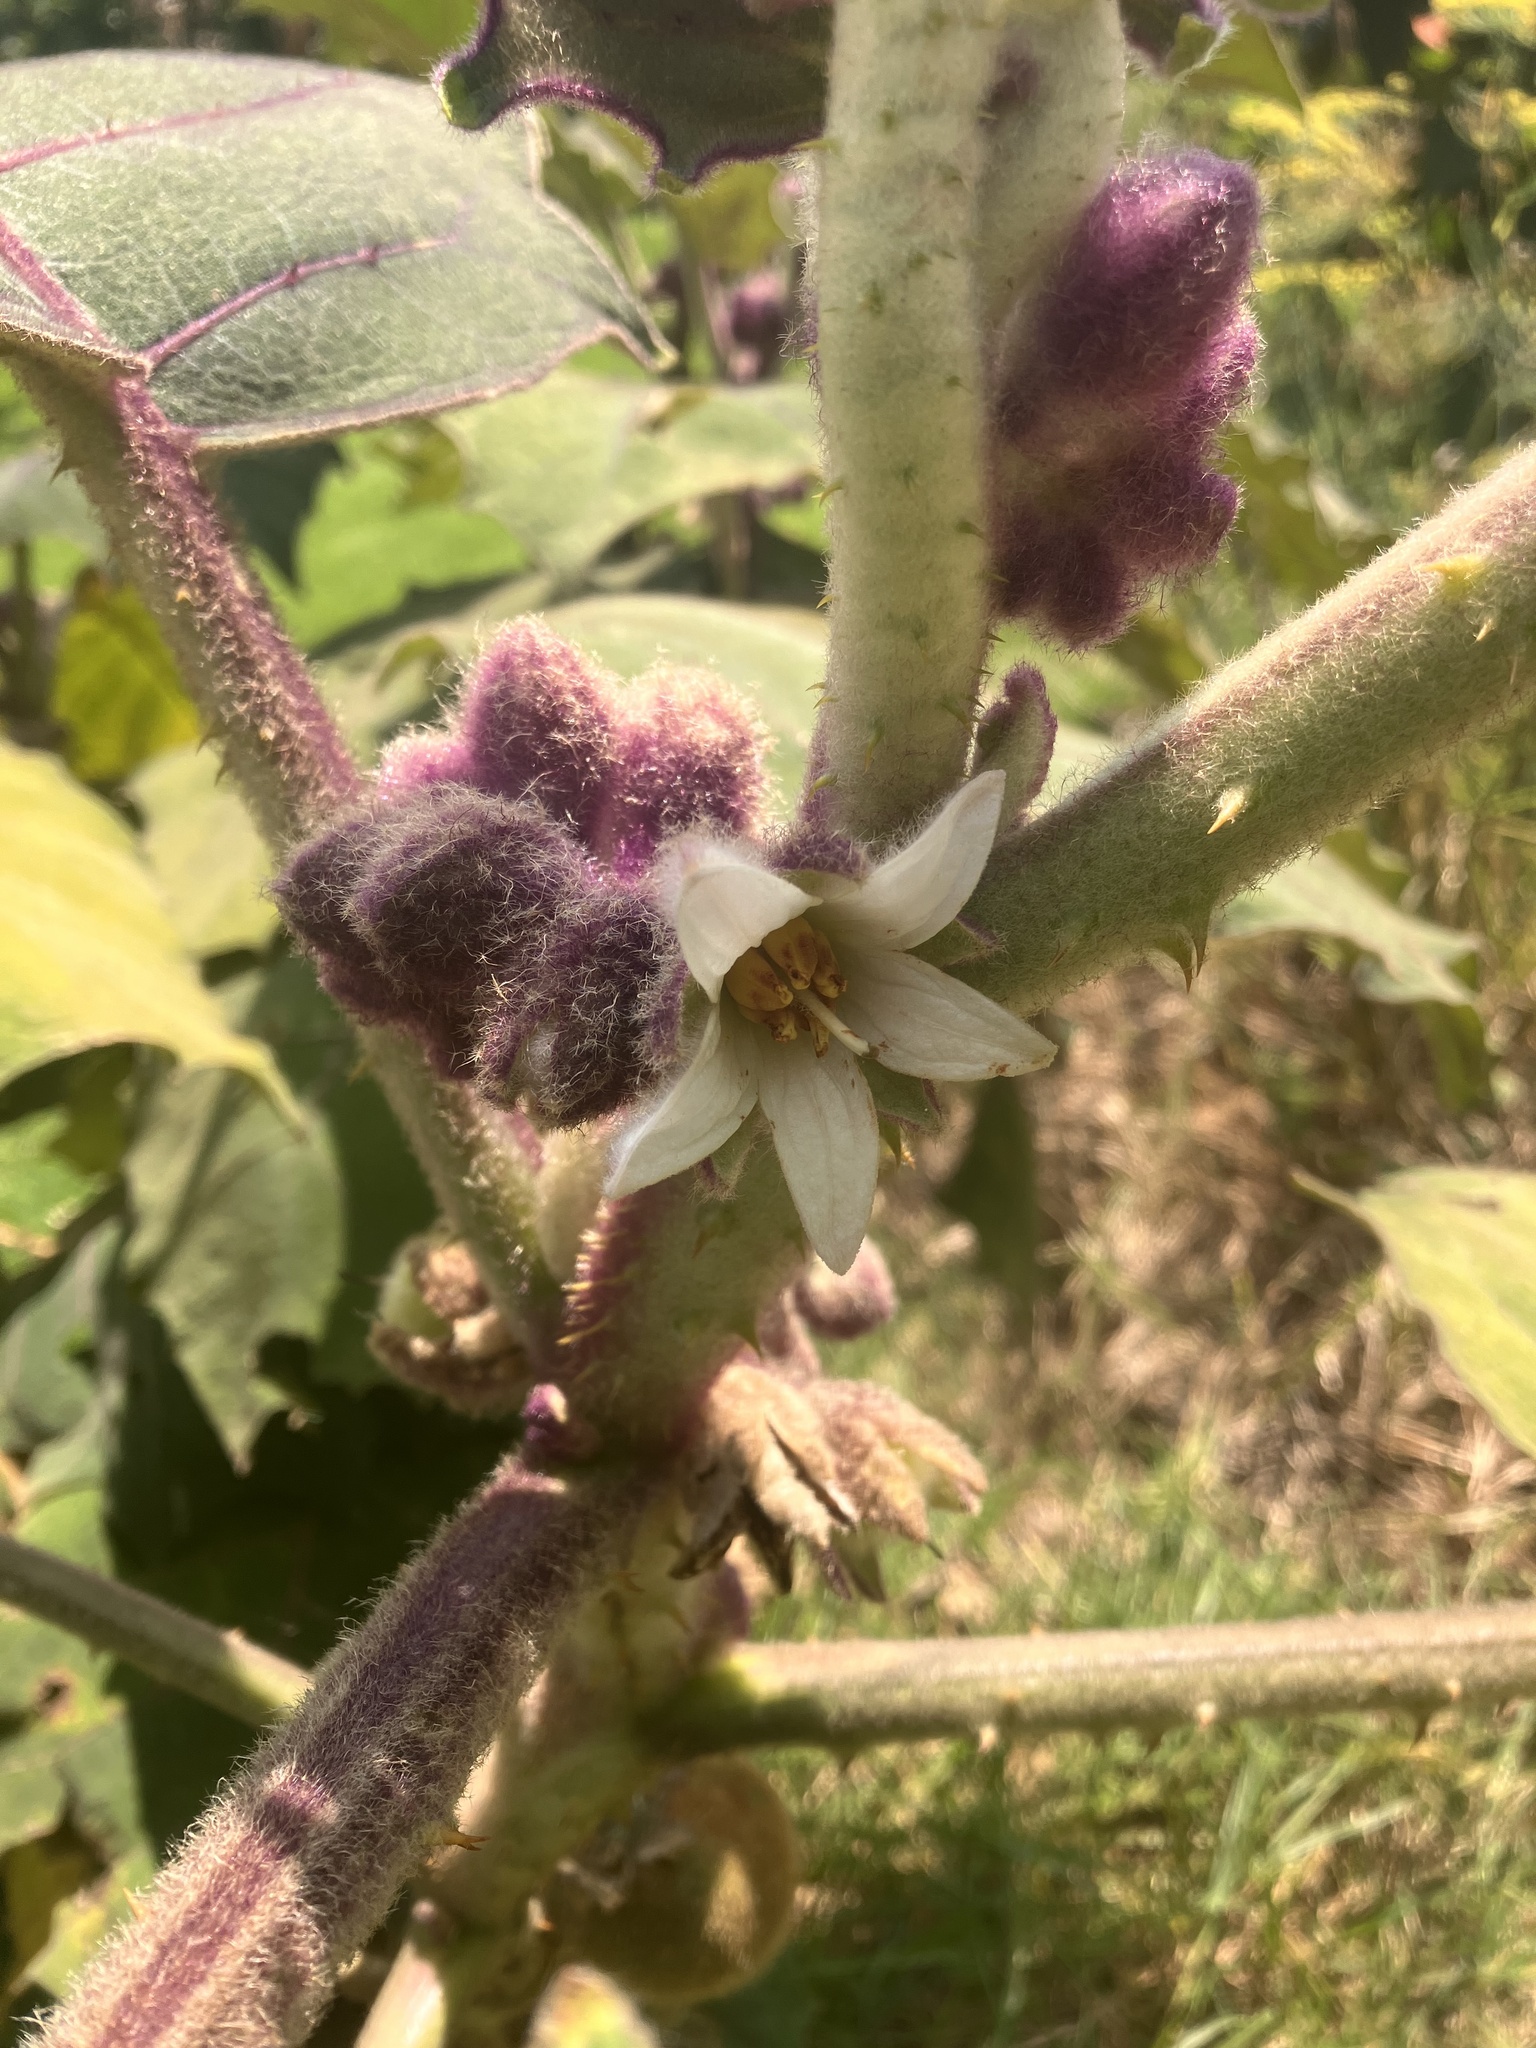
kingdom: Plantae
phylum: Tracheophyta
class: Magnoliopsida
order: Solanales
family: Solanaceae
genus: Solanum
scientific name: Solanum quitoense
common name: Quito-orange
